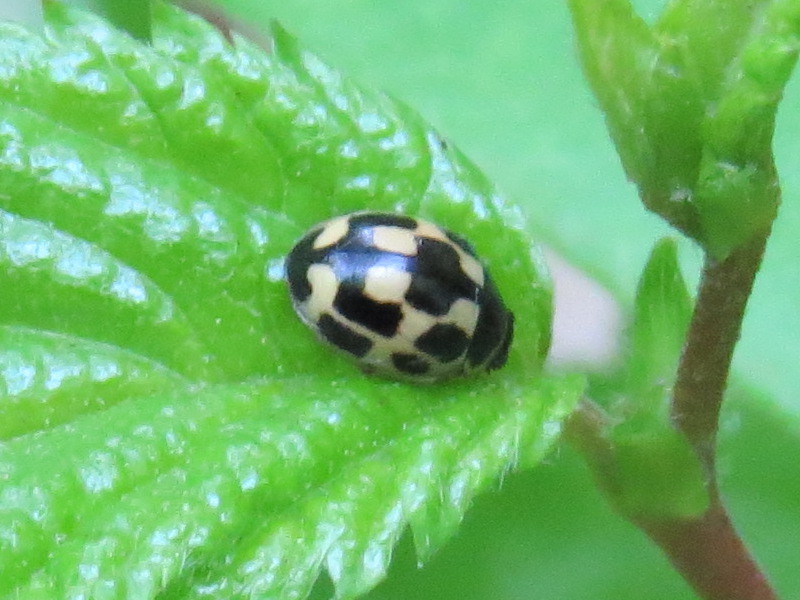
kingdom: Animalia
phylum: Arthropoda
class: Insecta
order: Coleoptera
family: Coccinellidae
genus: Propylaea
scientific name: Propylaea quatuordecimpunctata
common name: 14-spotted ladybird beetle
